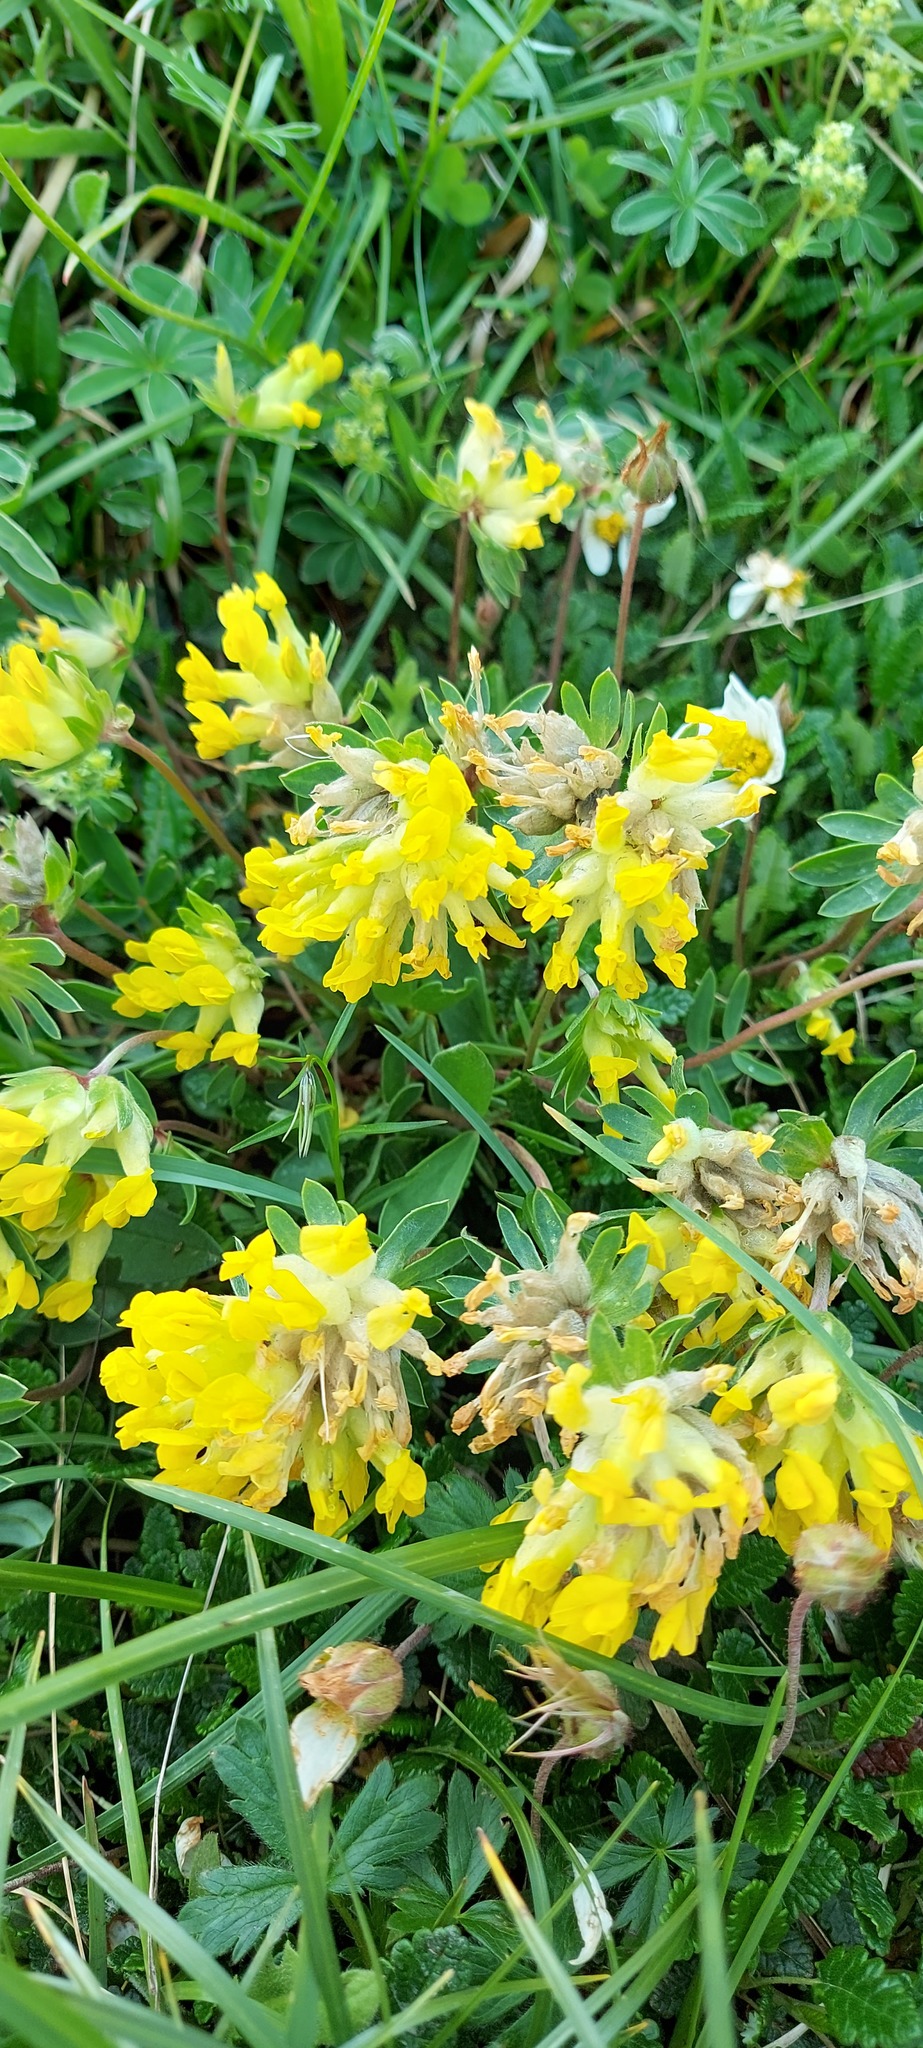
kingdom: Plantae
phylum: Tracheophyta
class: Magnoliopsida
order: Fabales
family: Fabaceae
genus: Anthyllis
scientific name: Anthyllis vulneraria
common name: Kidney vetch
